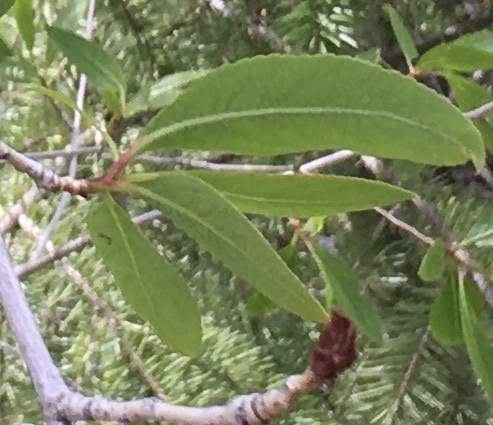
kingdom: Plantae
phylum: Tracheophyta
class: Magnoliopsida
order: Malpighiales
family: Salicaceae
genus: Populus
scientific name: Populus angustifolia
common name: Willow cottonwood
